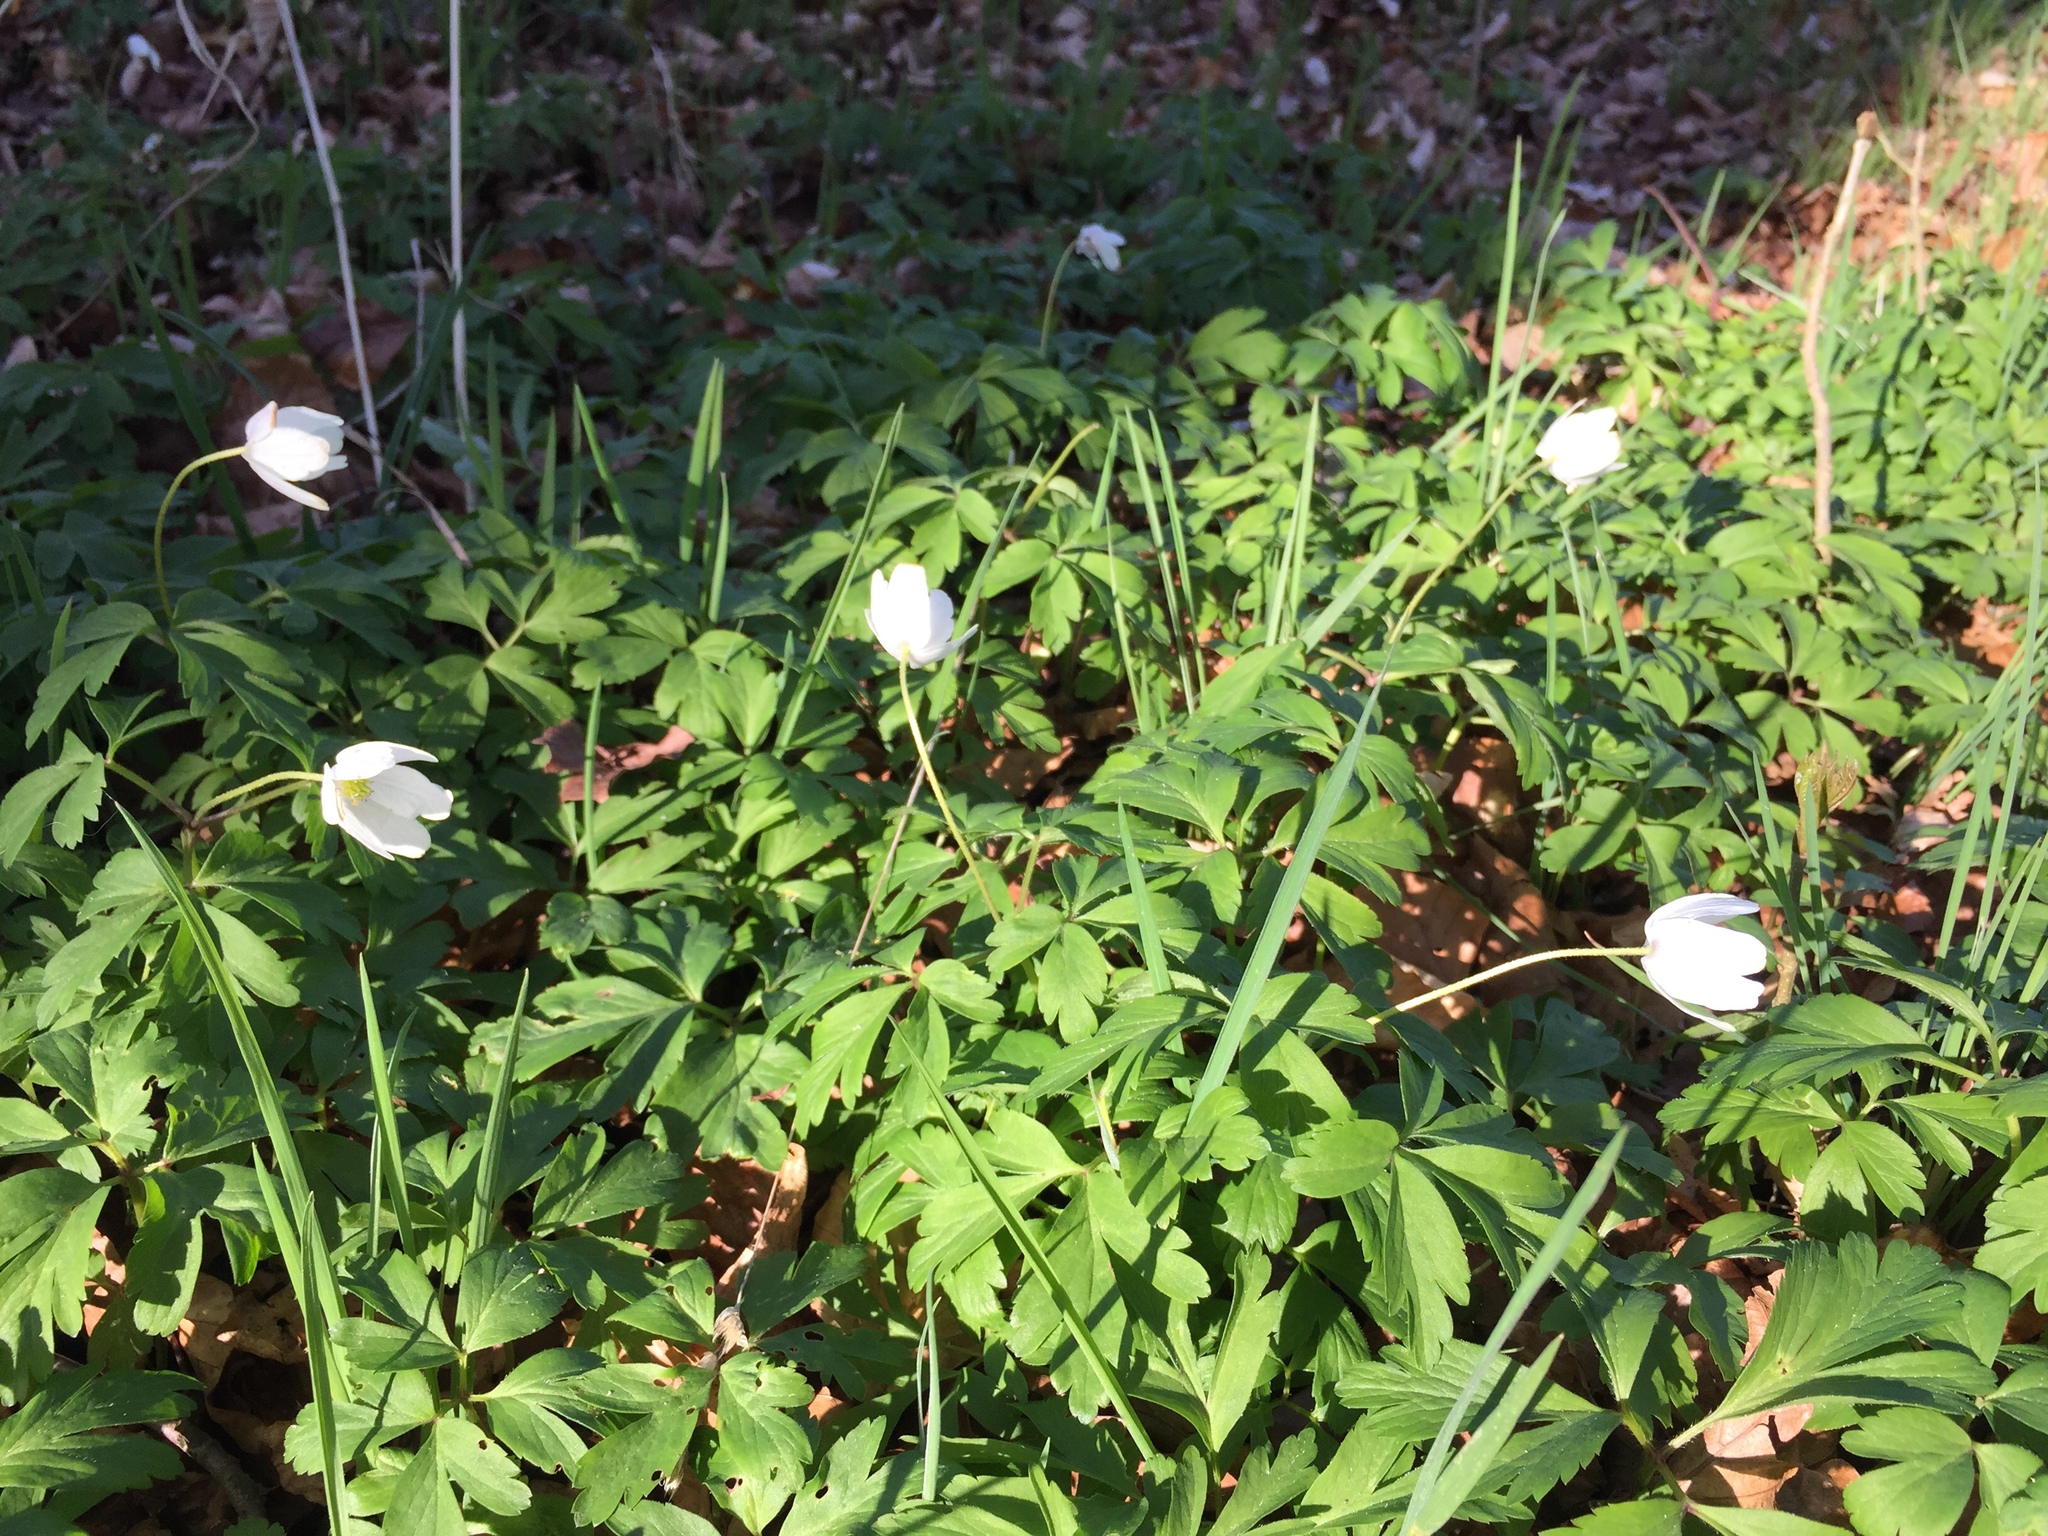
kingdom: Plantae
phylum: Tracheophyta
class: Magnoliopsida
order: Ranunculales
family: Ranunculaceae
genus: Anemone
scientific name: Anemone nemorosa
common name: Wood anemone
